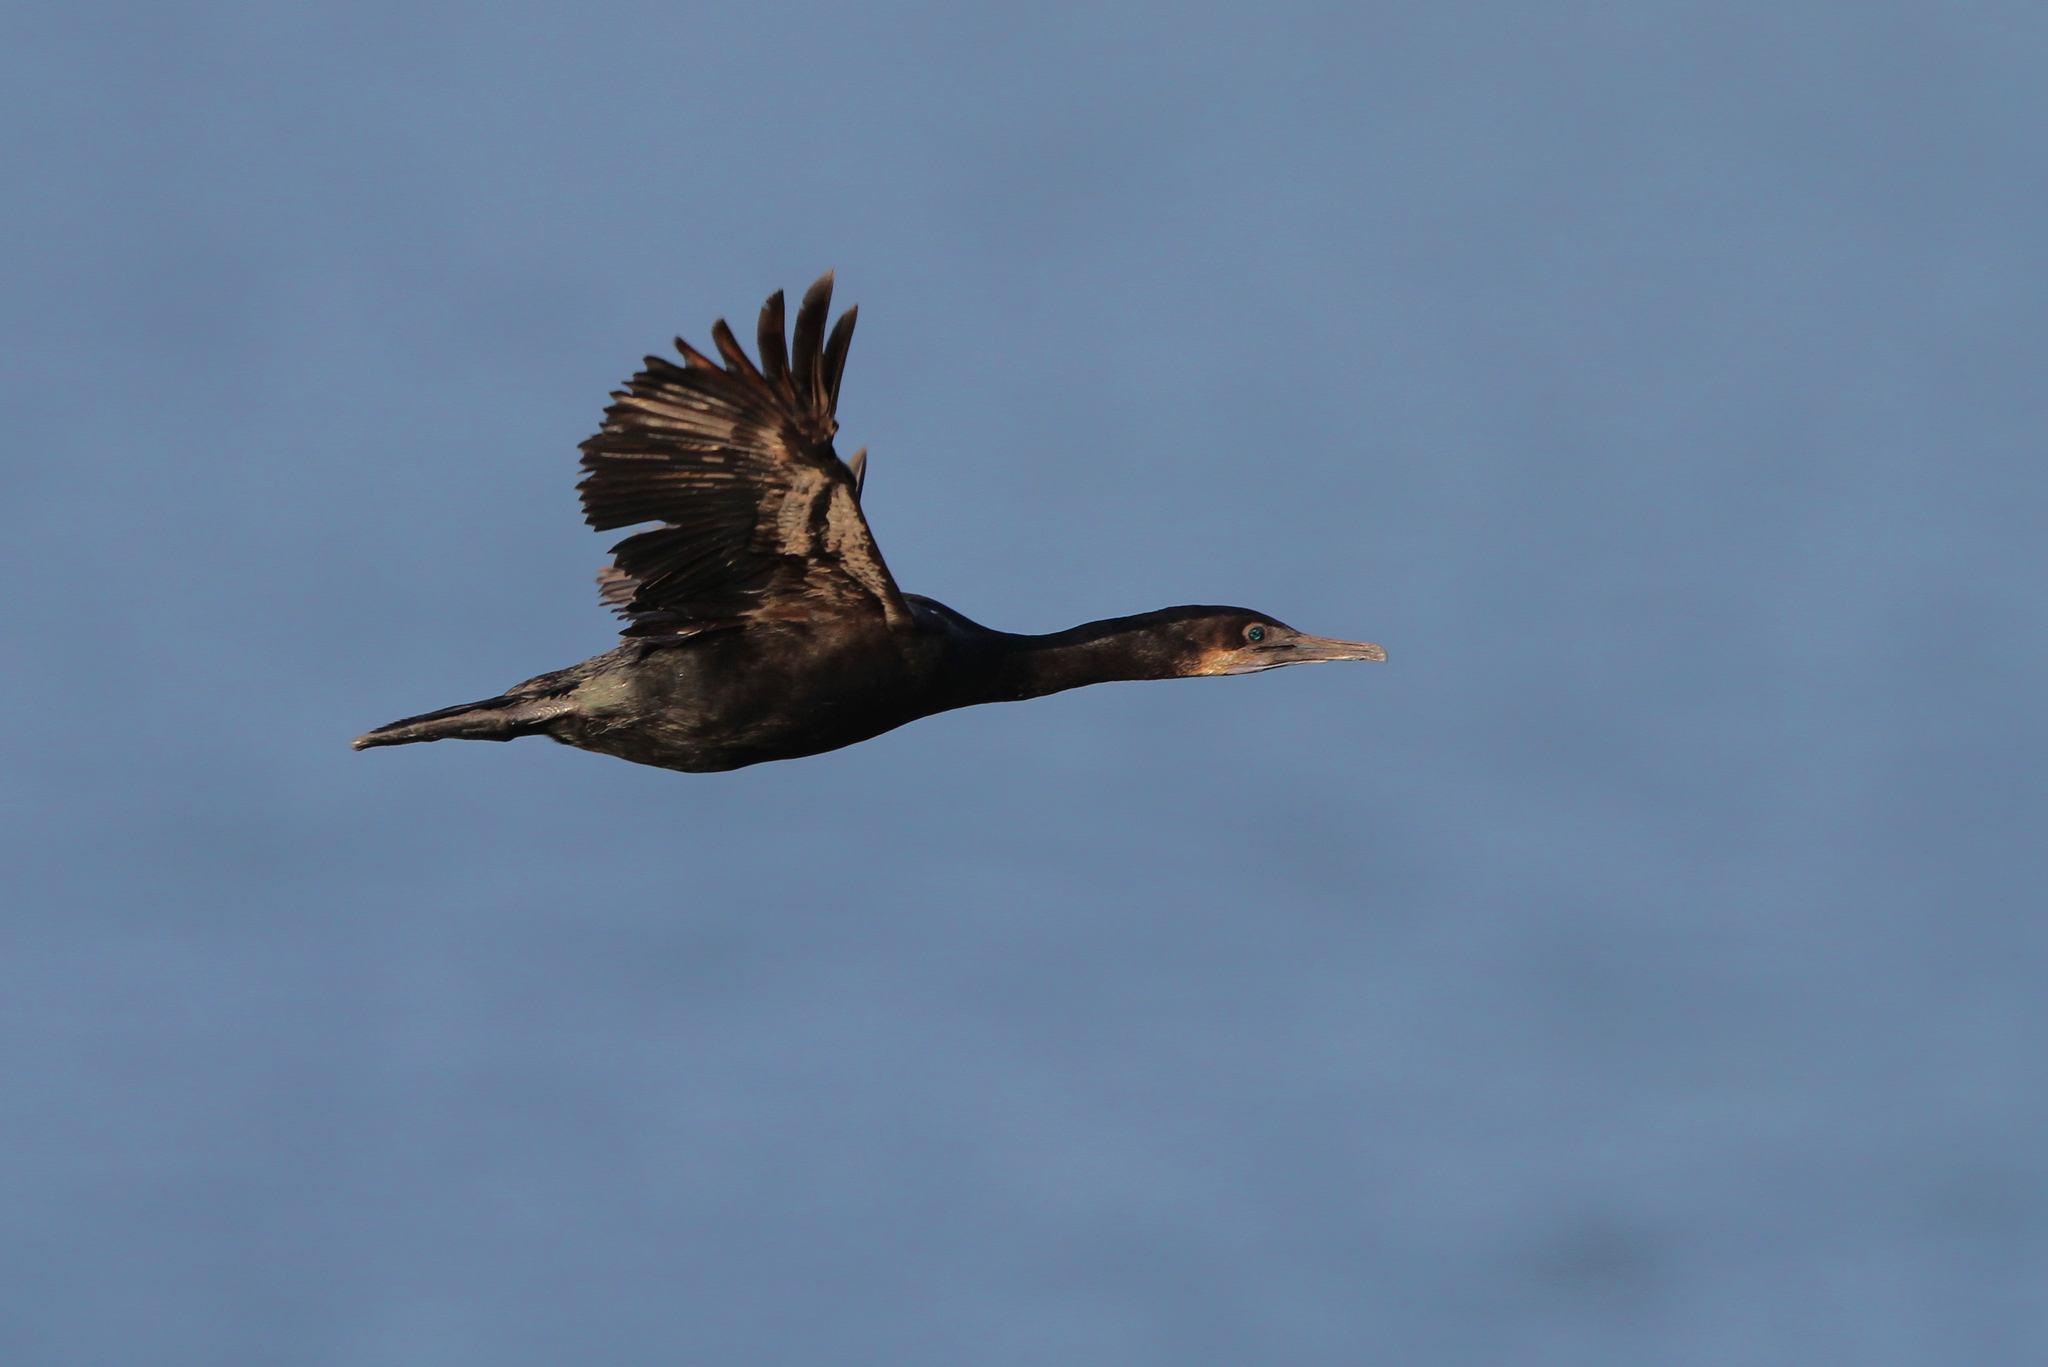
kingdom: Animalia
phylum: Chordata
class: Aves
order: Suliformes
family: Phalacrocoracidae
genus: Urile
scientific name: Urile penicillatus
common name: Brandt's cormorant
